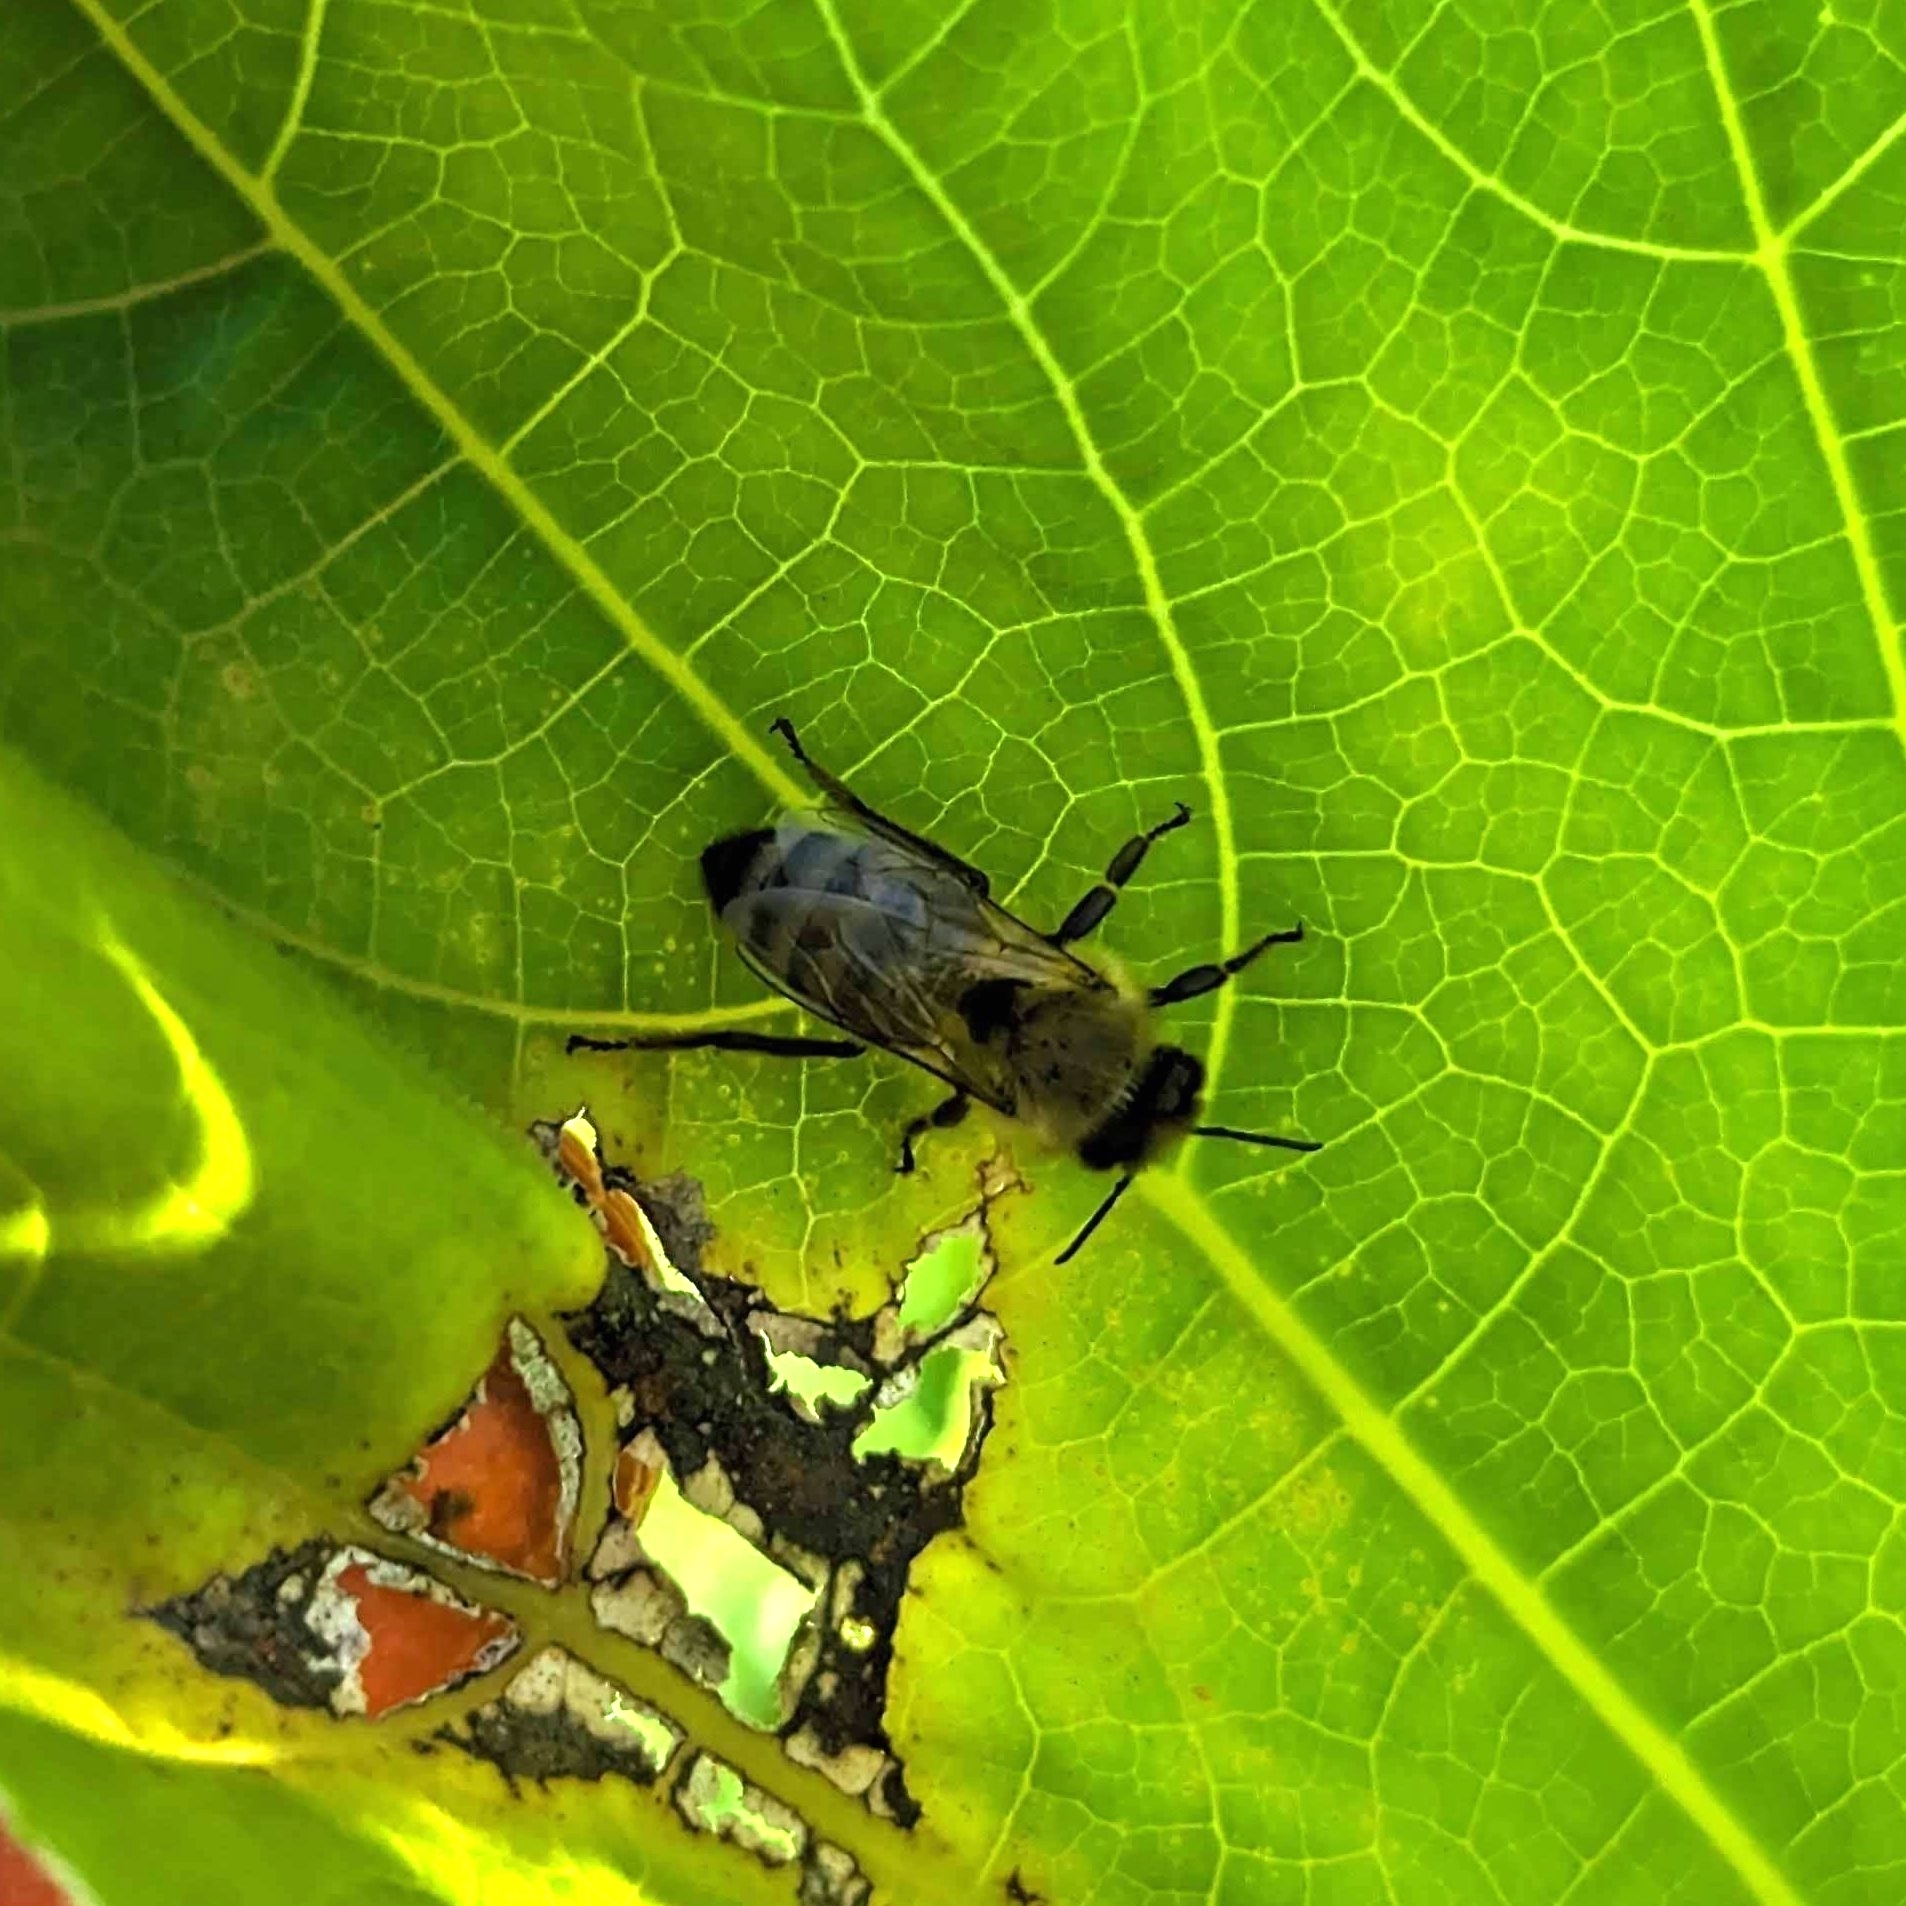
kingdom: Animalia
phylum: Arthropoda
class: Insecta
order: Hymenoptera
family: Apidae
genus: Apis
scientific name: Apis mellifera
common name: Honey bee
